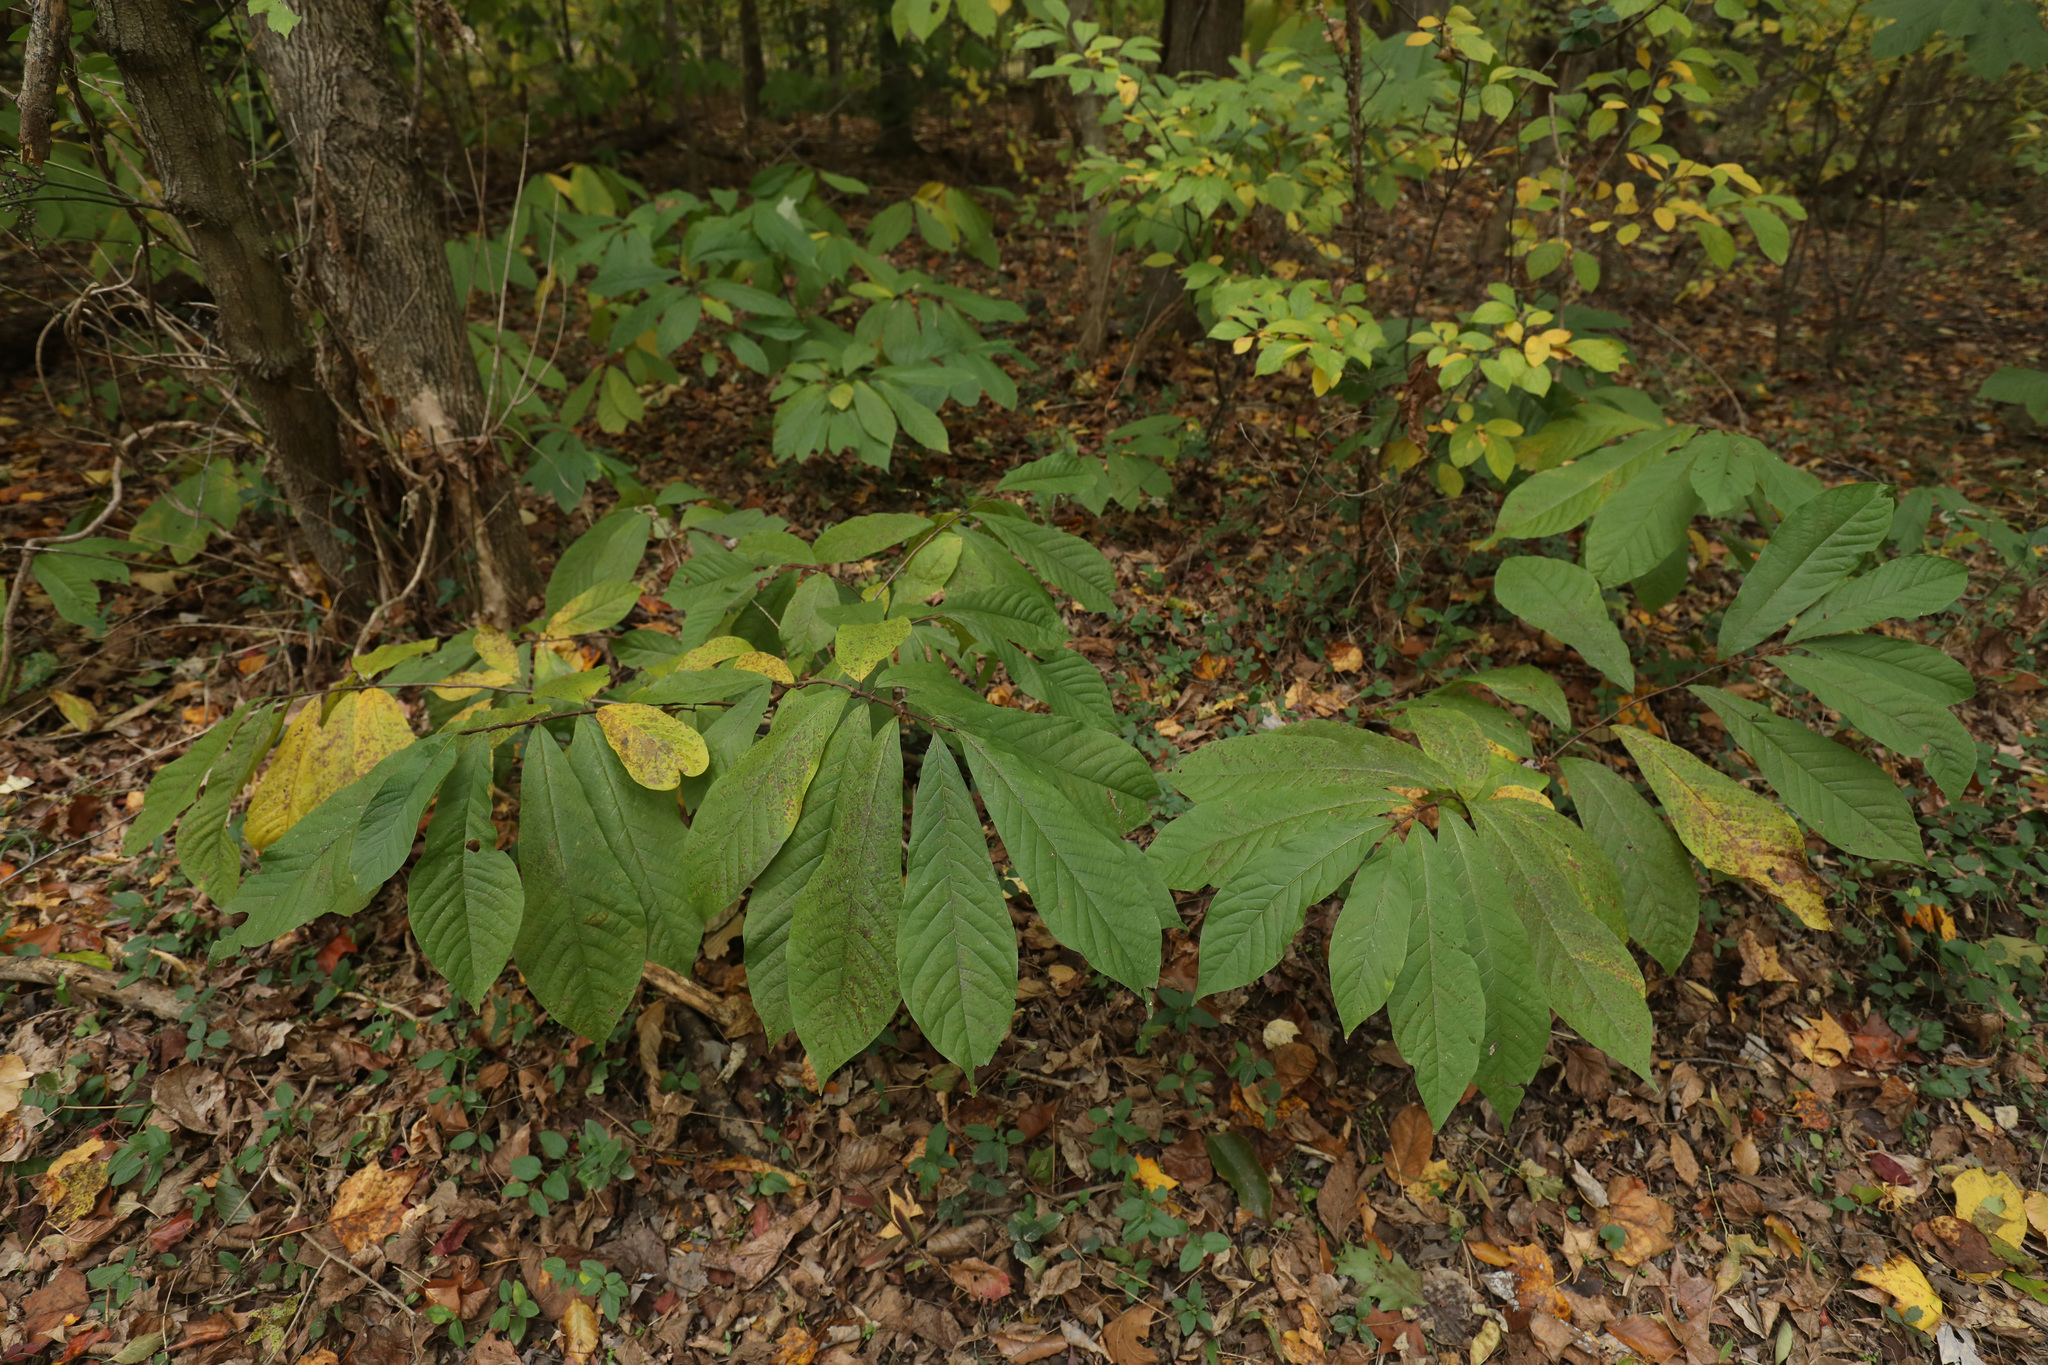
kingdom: Plantae
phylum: Tracheophyta
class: Magnoliopsida
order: Magnoliales
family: Annonaceae
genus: Asimina
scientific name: Asimina triloba
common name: Dog-banana
